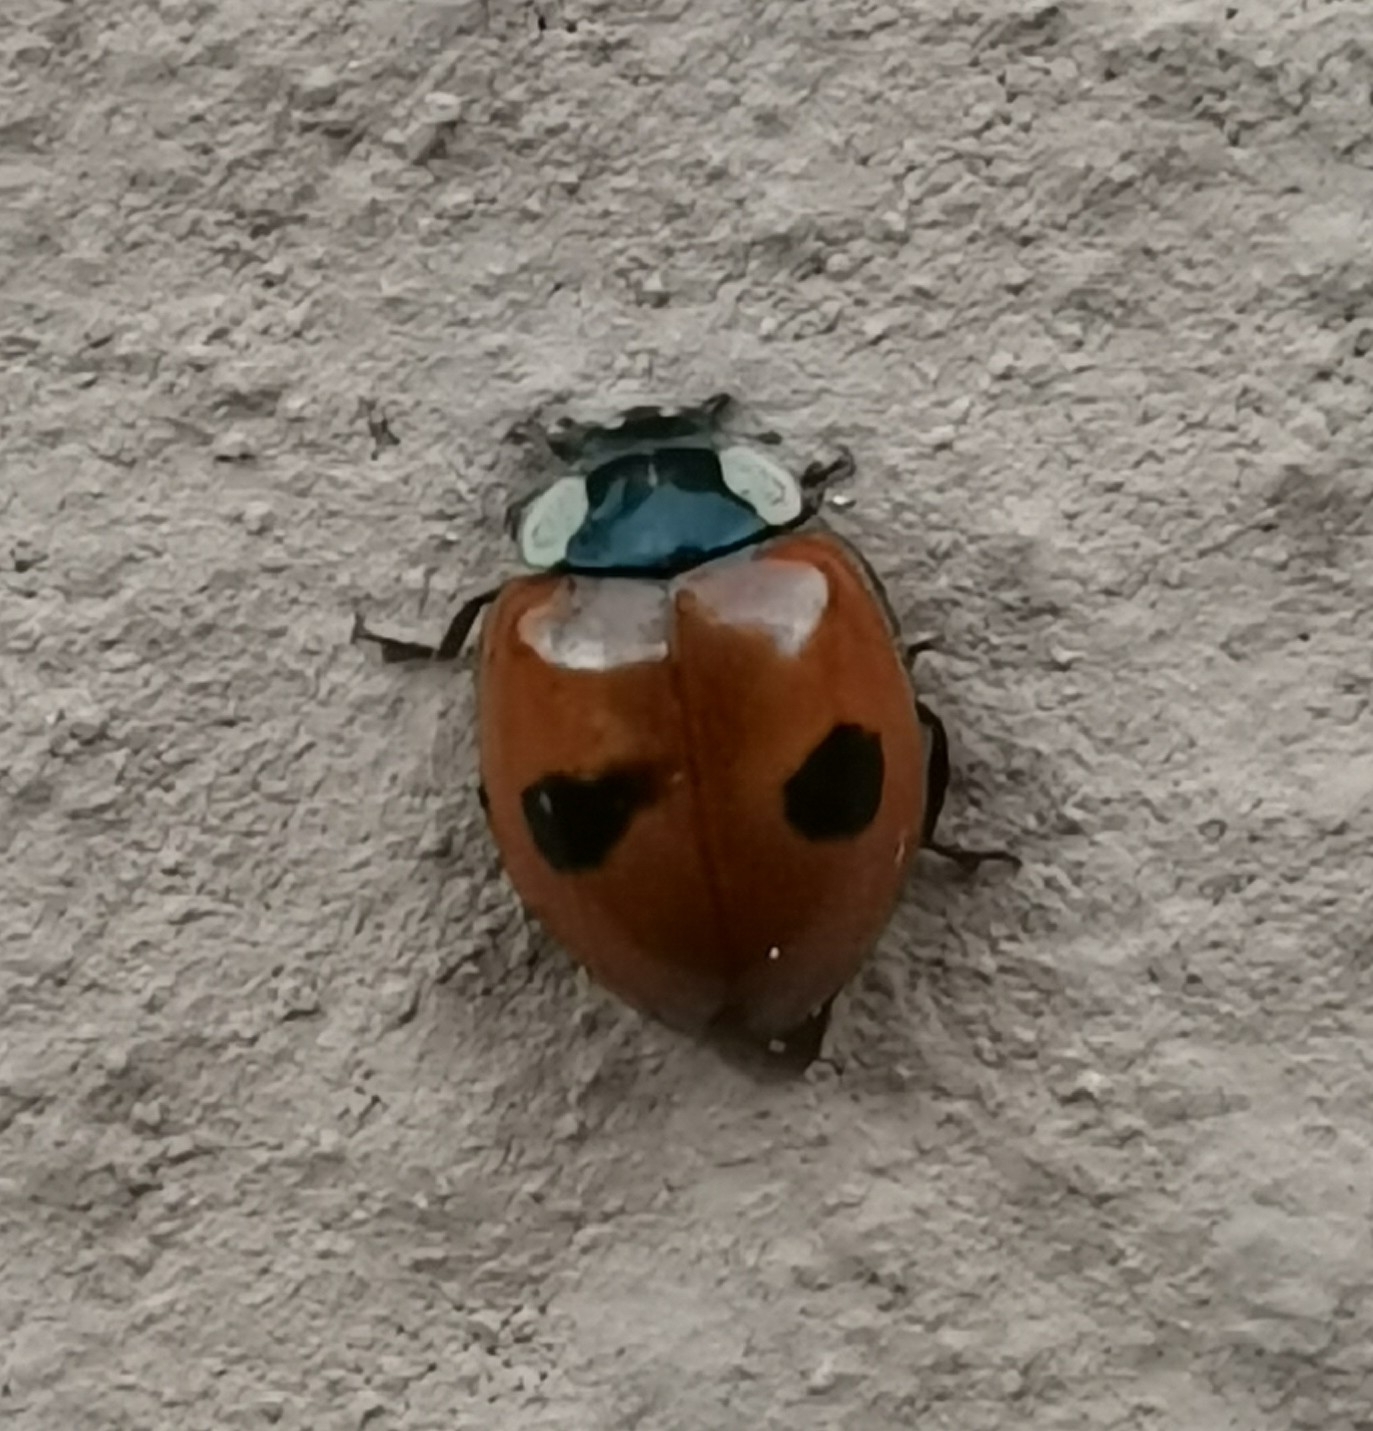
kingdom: Animalia
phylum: Arthropoda
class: Insecta
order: Coleoptera
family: Coccinellidae
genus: Adalia
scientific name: Adalia bipunctata
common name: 2-spot ladybird
